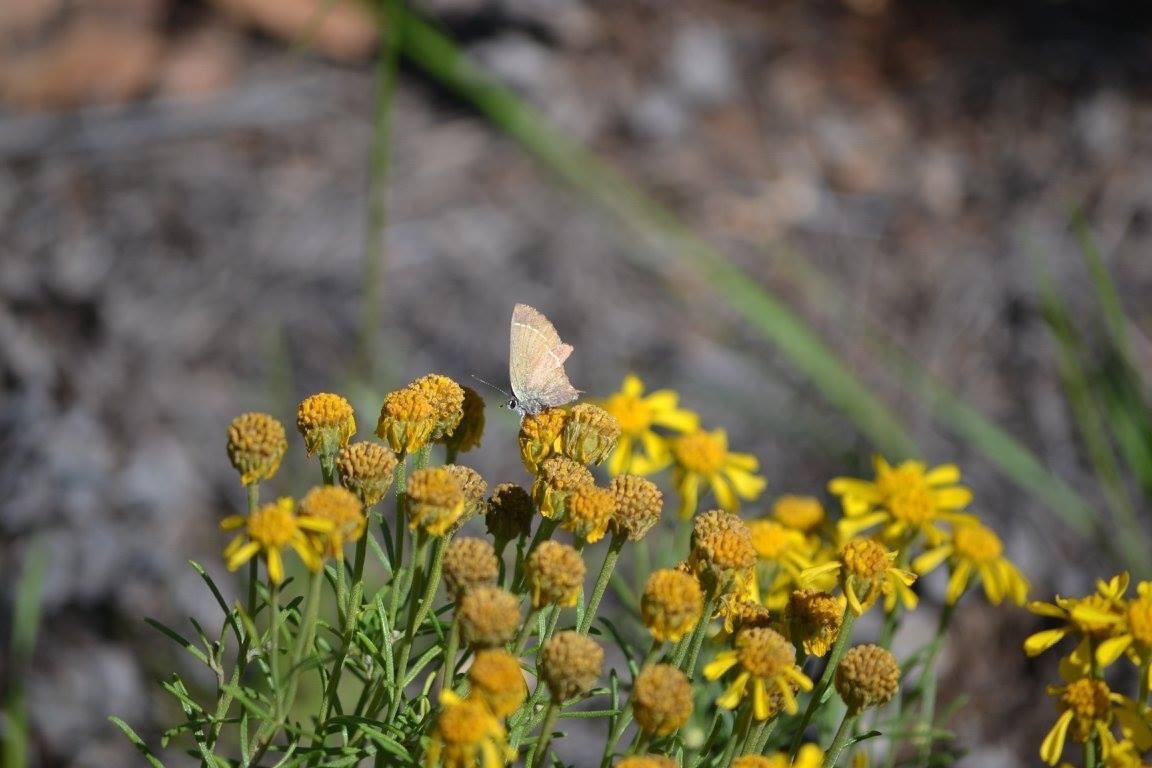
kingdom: Animalia
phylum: Arthropoda
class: Insecta
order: Lepidoptera
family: Lycaenidae
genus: Mitoura
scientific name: Mitoura siva
